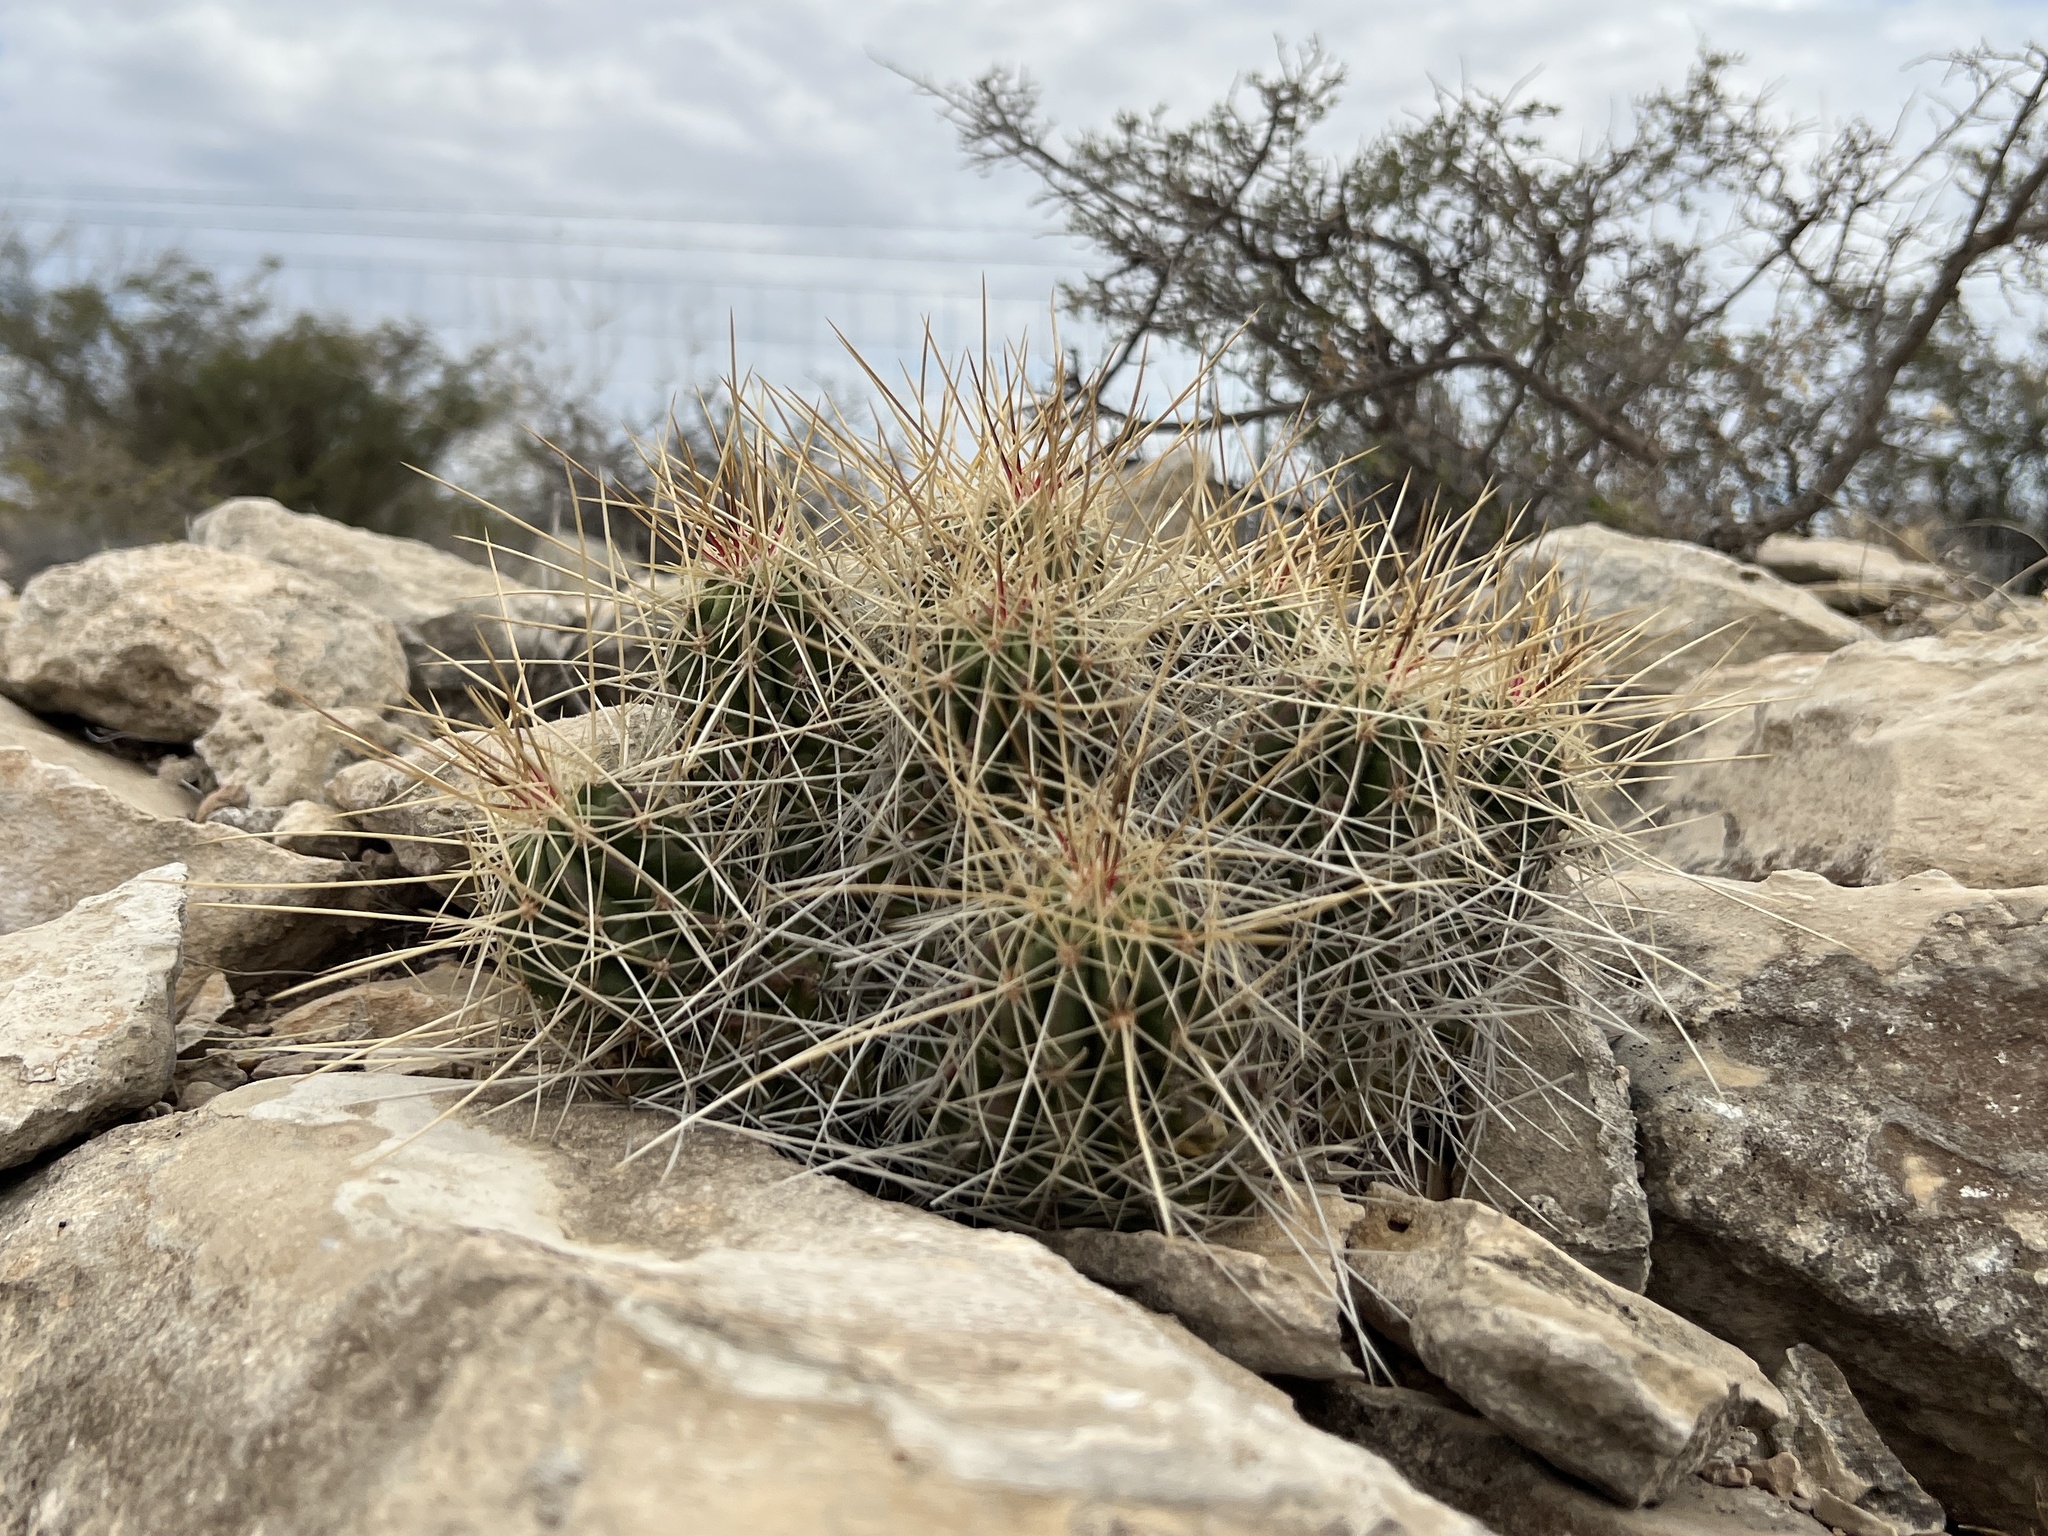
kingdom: Plantae
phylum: Tracheophyta
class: Magnoliopsida
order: Caryophyllales
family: Cactaceae
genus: Echinocereus
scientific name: Echinocereus stramineus
